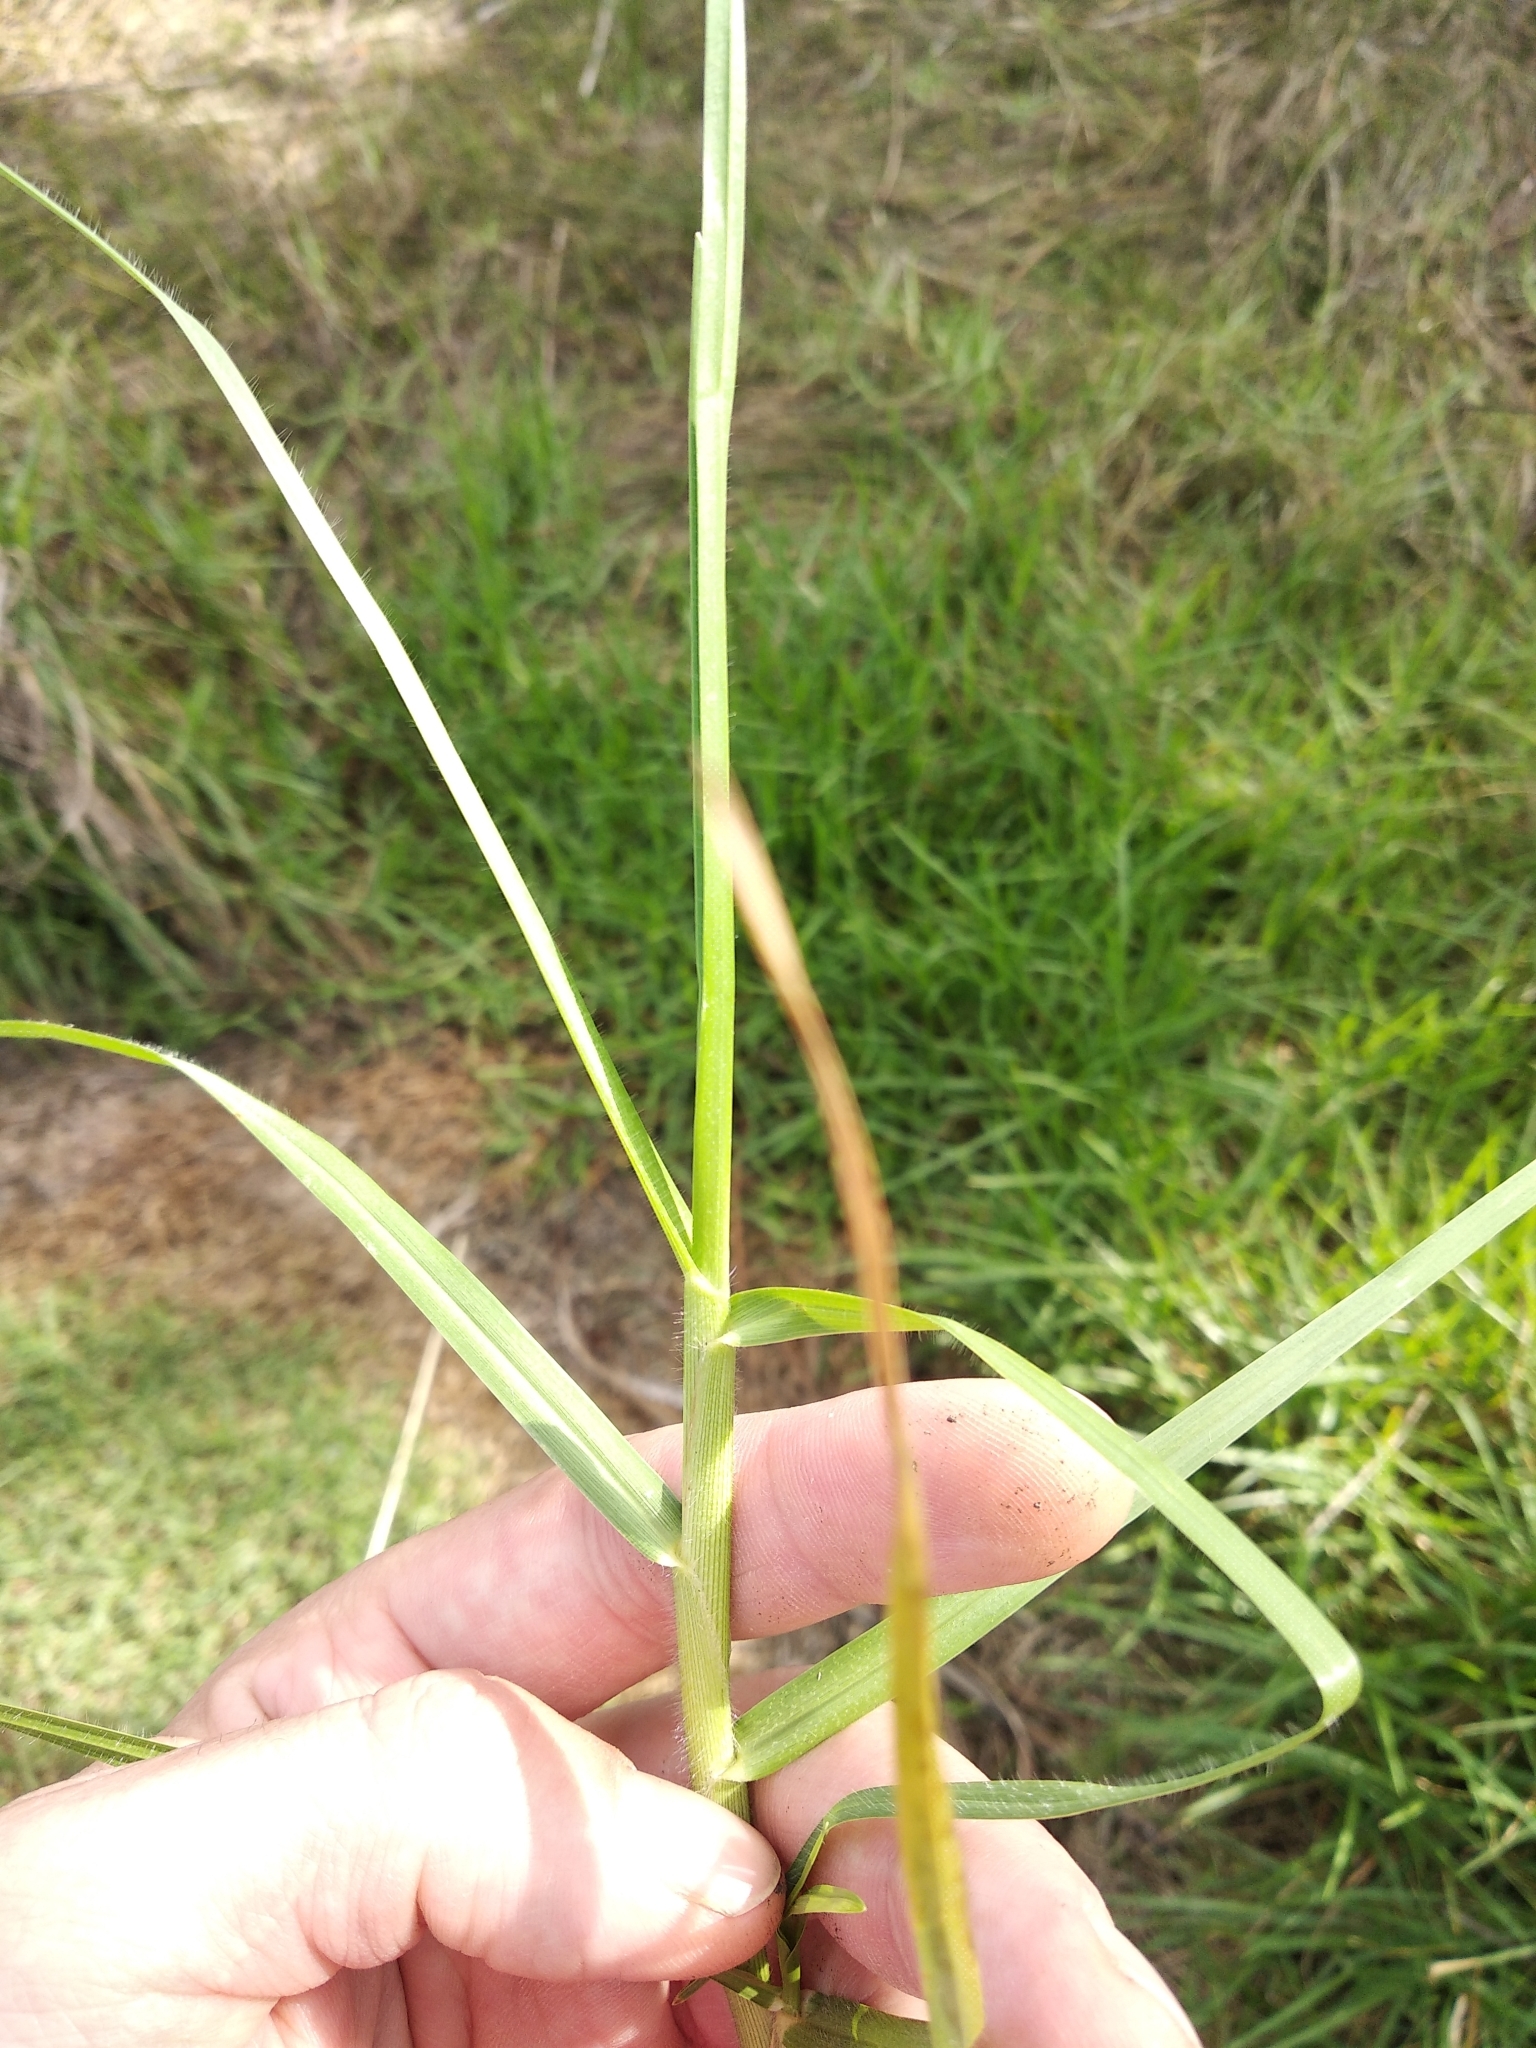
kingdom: Plantae
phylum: Tracheophyta
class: Liliopsida
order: Poales
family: Poaceae
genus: Cenchrus
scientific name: Cenchrus clandestinus
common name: Kikuyugrass
